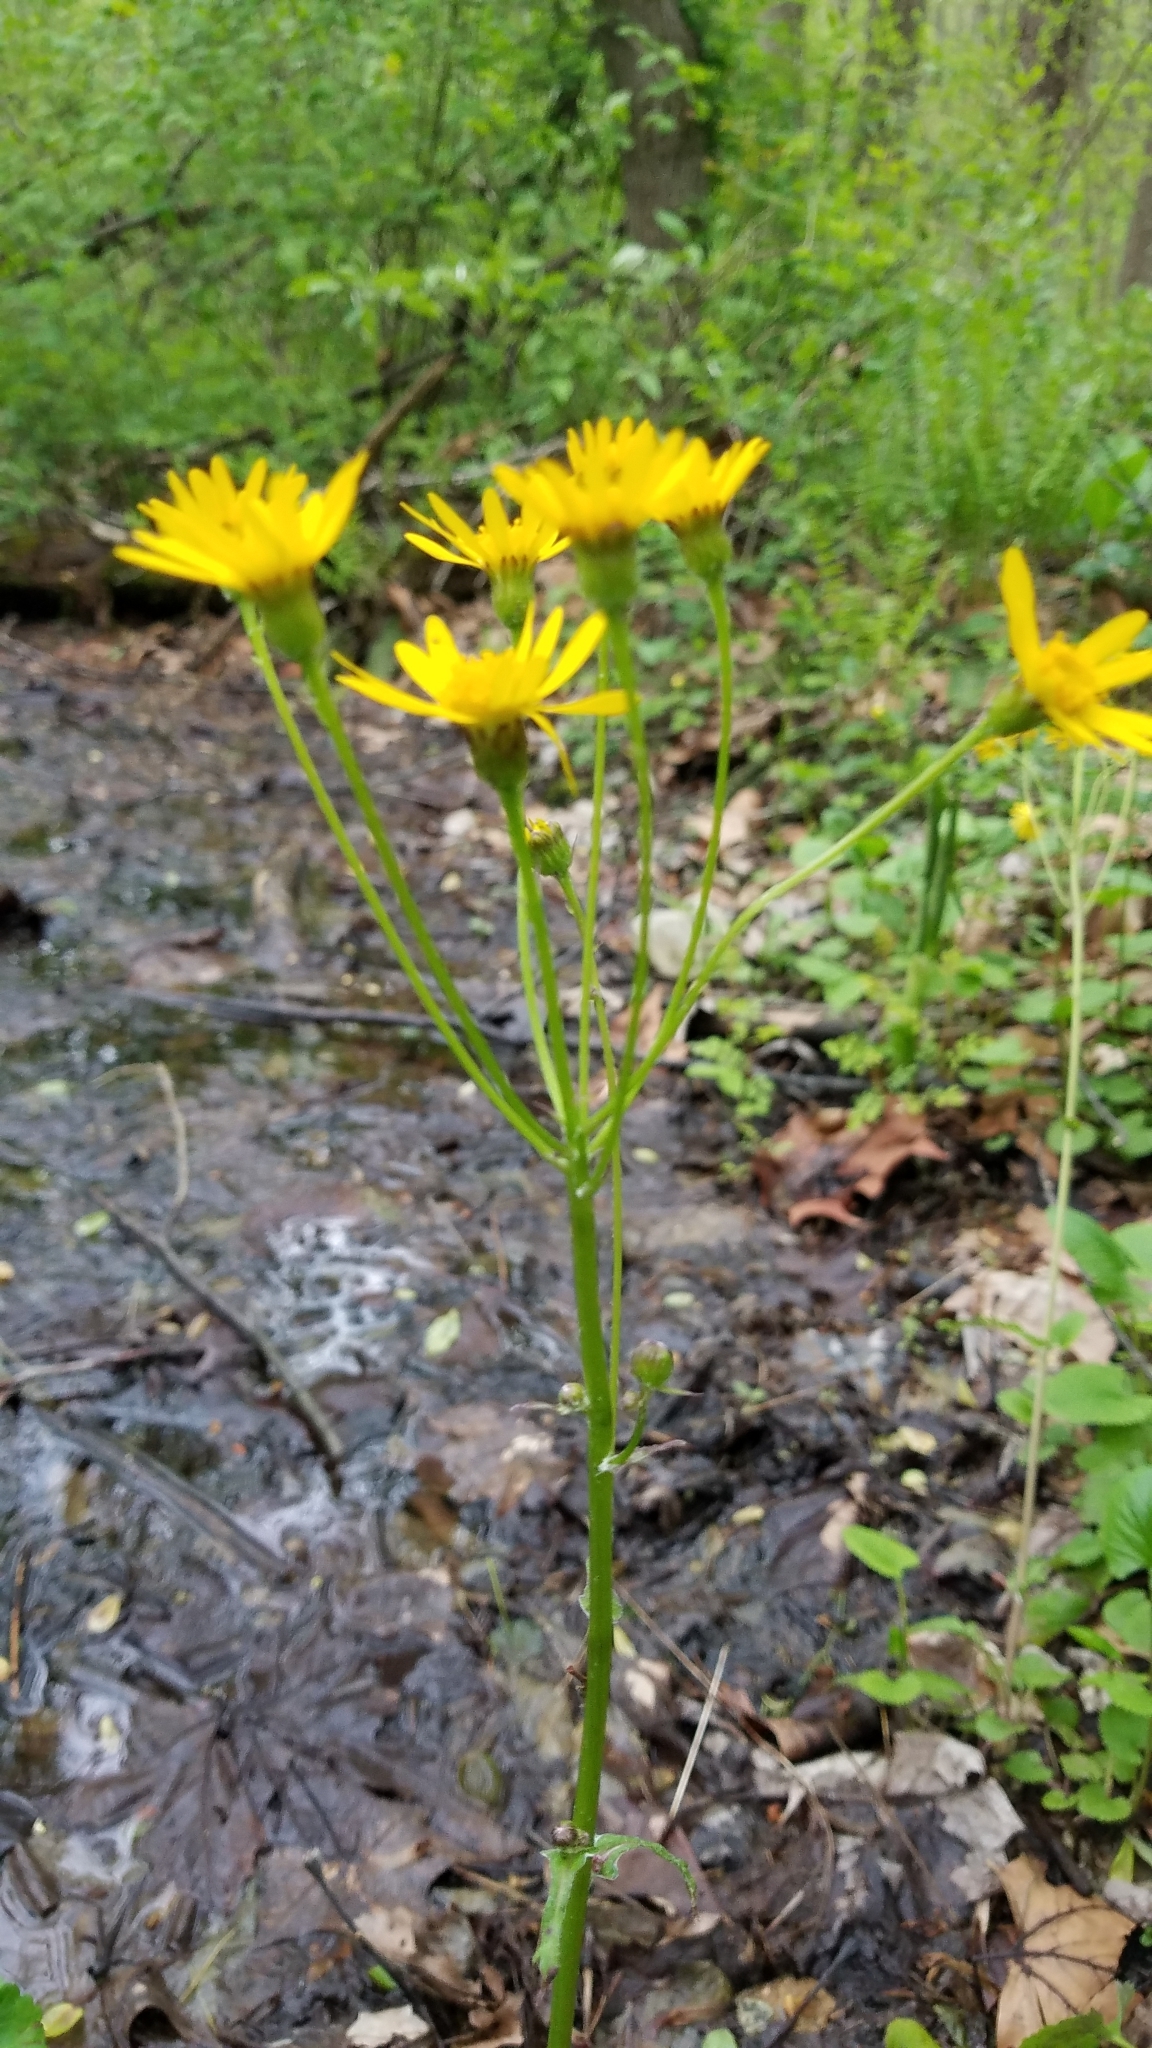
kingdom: Plantae
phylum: Tracheophyta
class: Magnoliopsida
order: Asterales
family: Asteraceae
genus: Packera
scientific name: Packera aurea
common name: Golden groundsel
